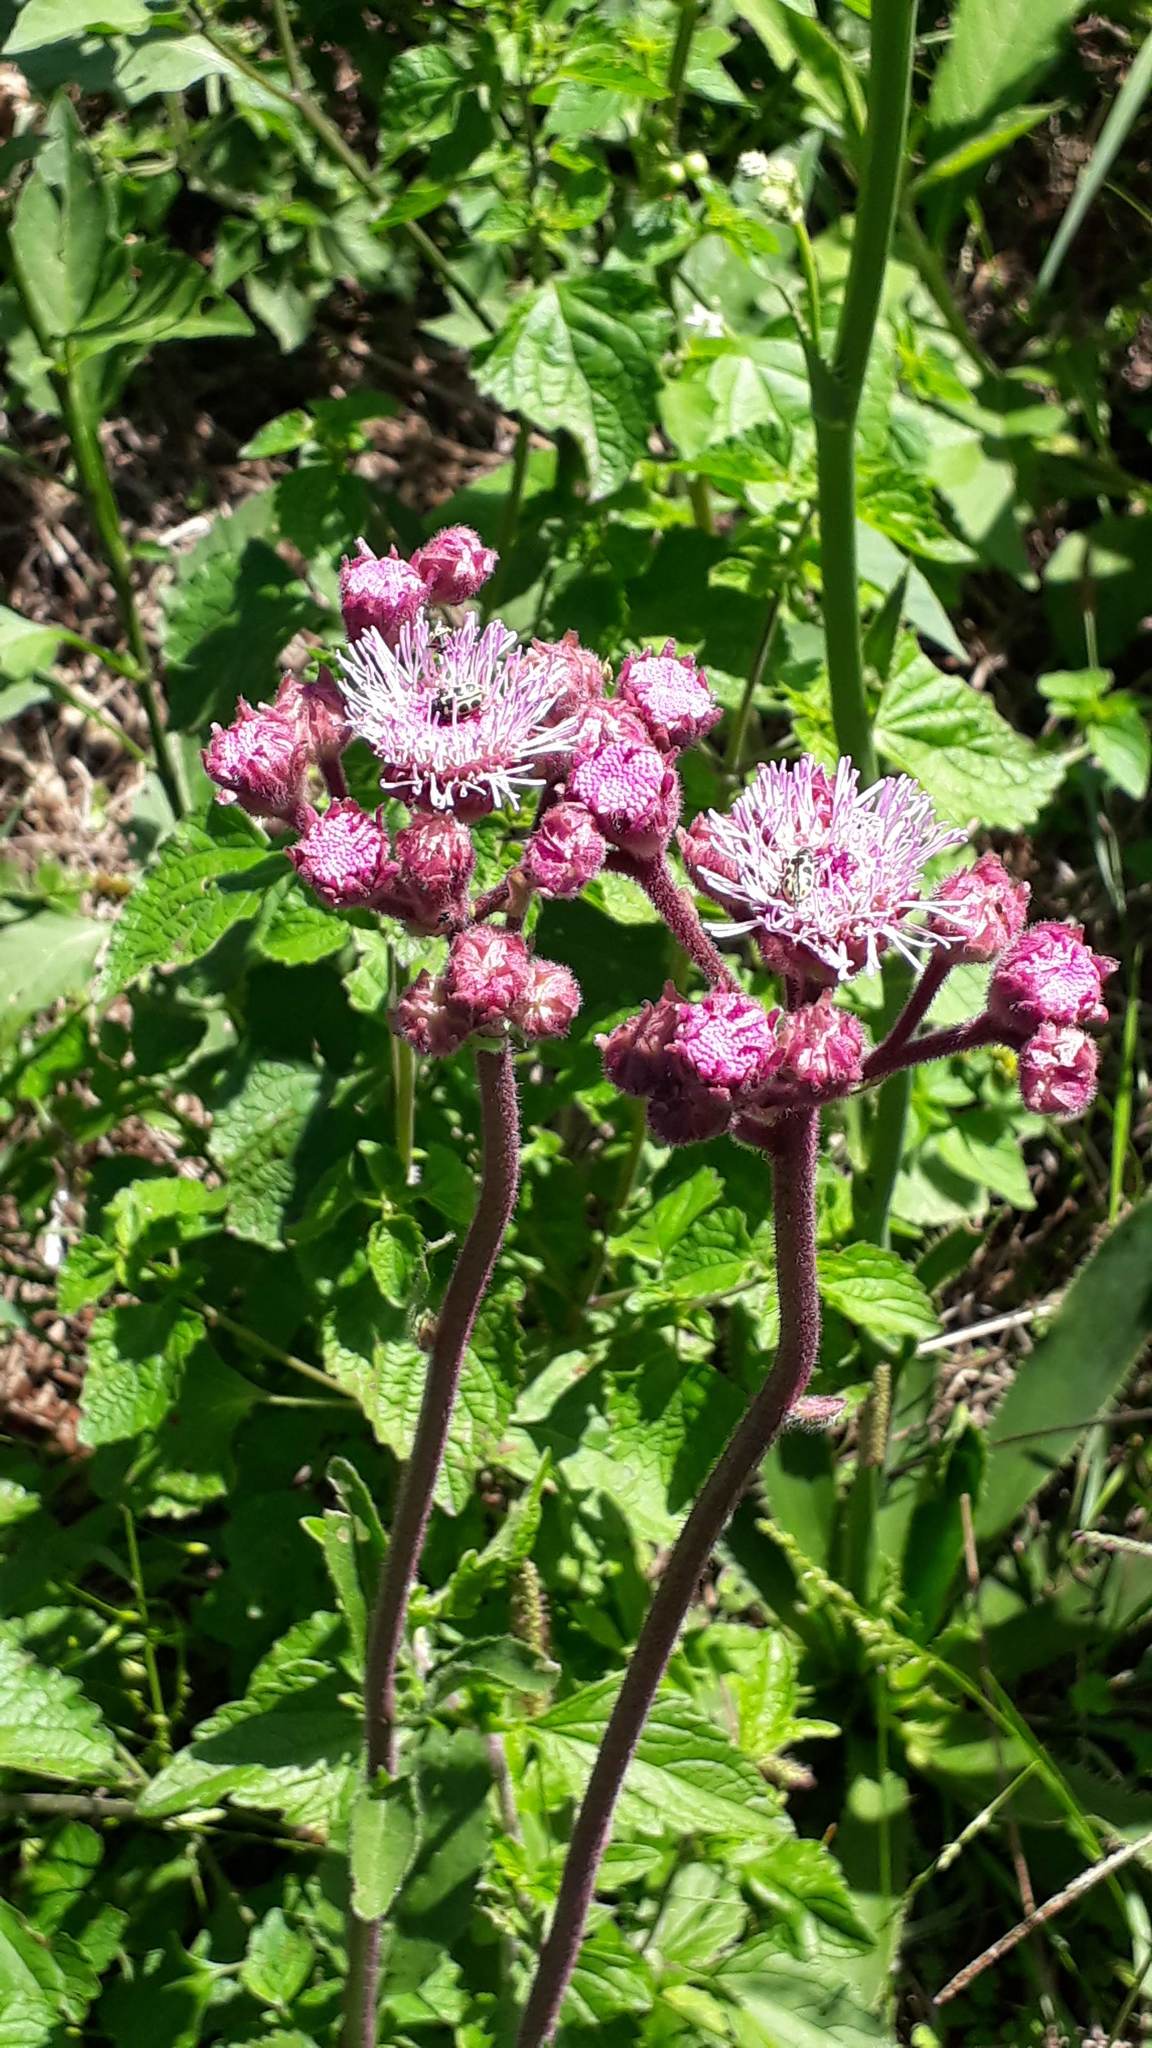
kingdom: Plantae
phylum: Tracheophyta
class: Magnoliopsida
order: Asterales
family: Asteraceae
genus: Campuloclinium
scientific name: Campuloclinium macrocephalum
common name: Pompomweed
